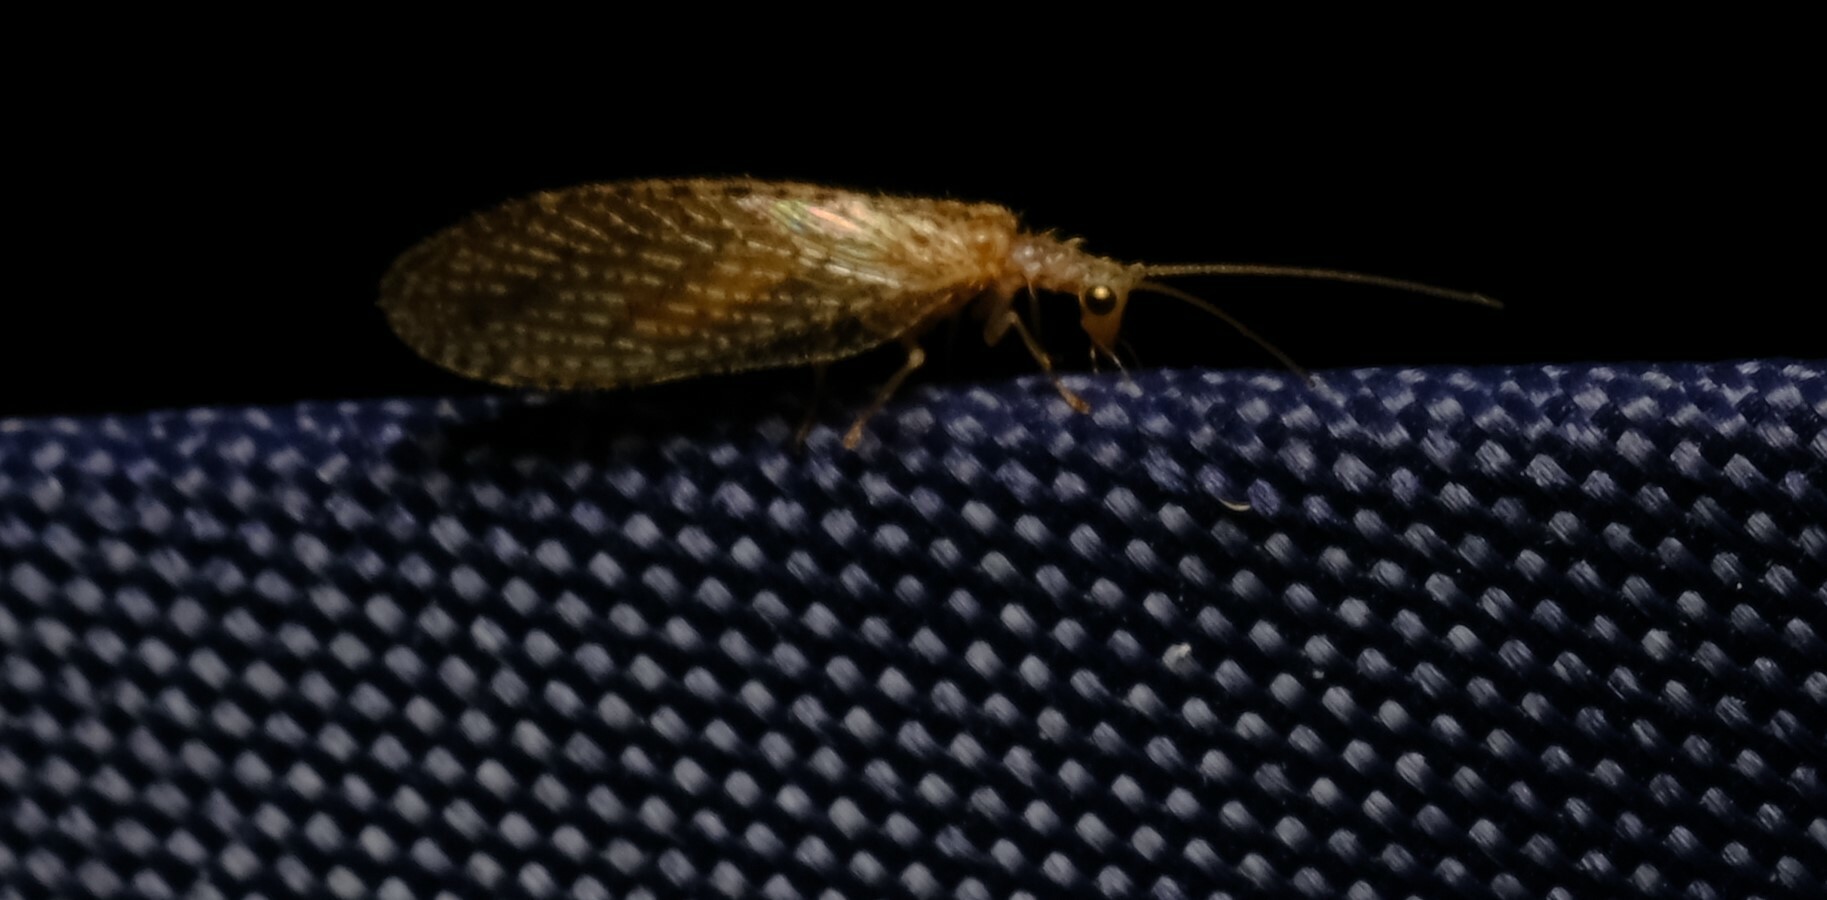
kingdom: Animalia
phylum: Arthropoda
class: Insecta
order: Neuroptera
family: Hemerobiidae
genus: Micromus
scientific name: Micromus tasmaniae
